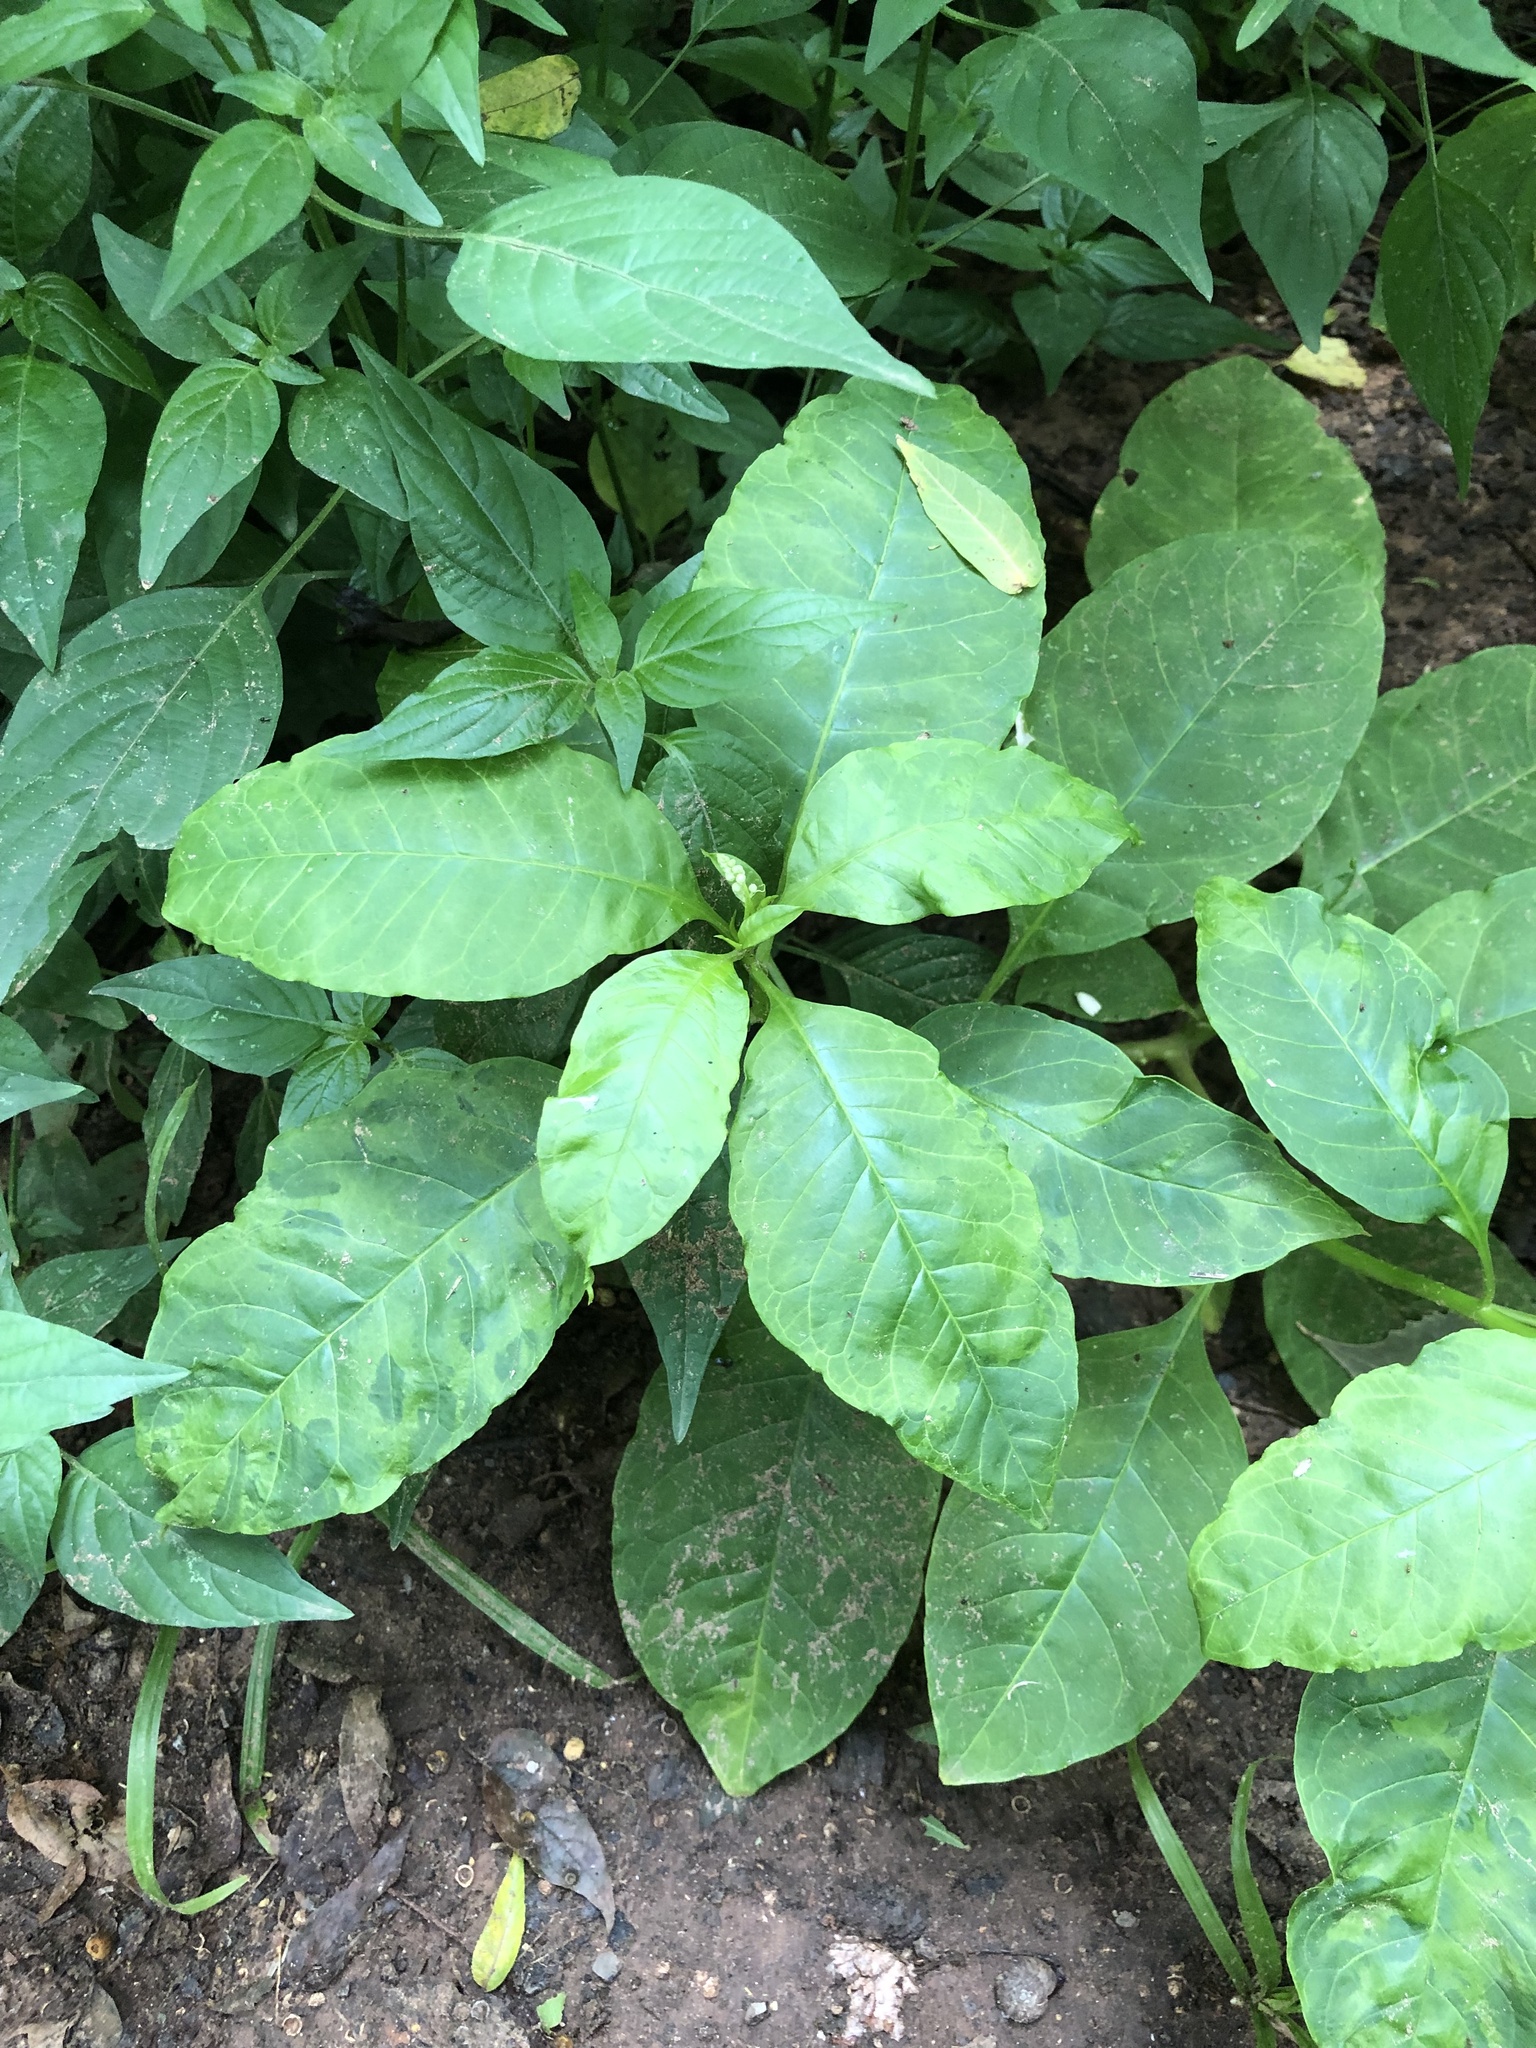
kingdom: Viruses
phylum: Pisuviricota
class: Stelpaviricetes
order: Patatavirales
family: Potyviridae
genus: Potyvirus
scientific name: Potyvirus Pokeweed mosaic virus
